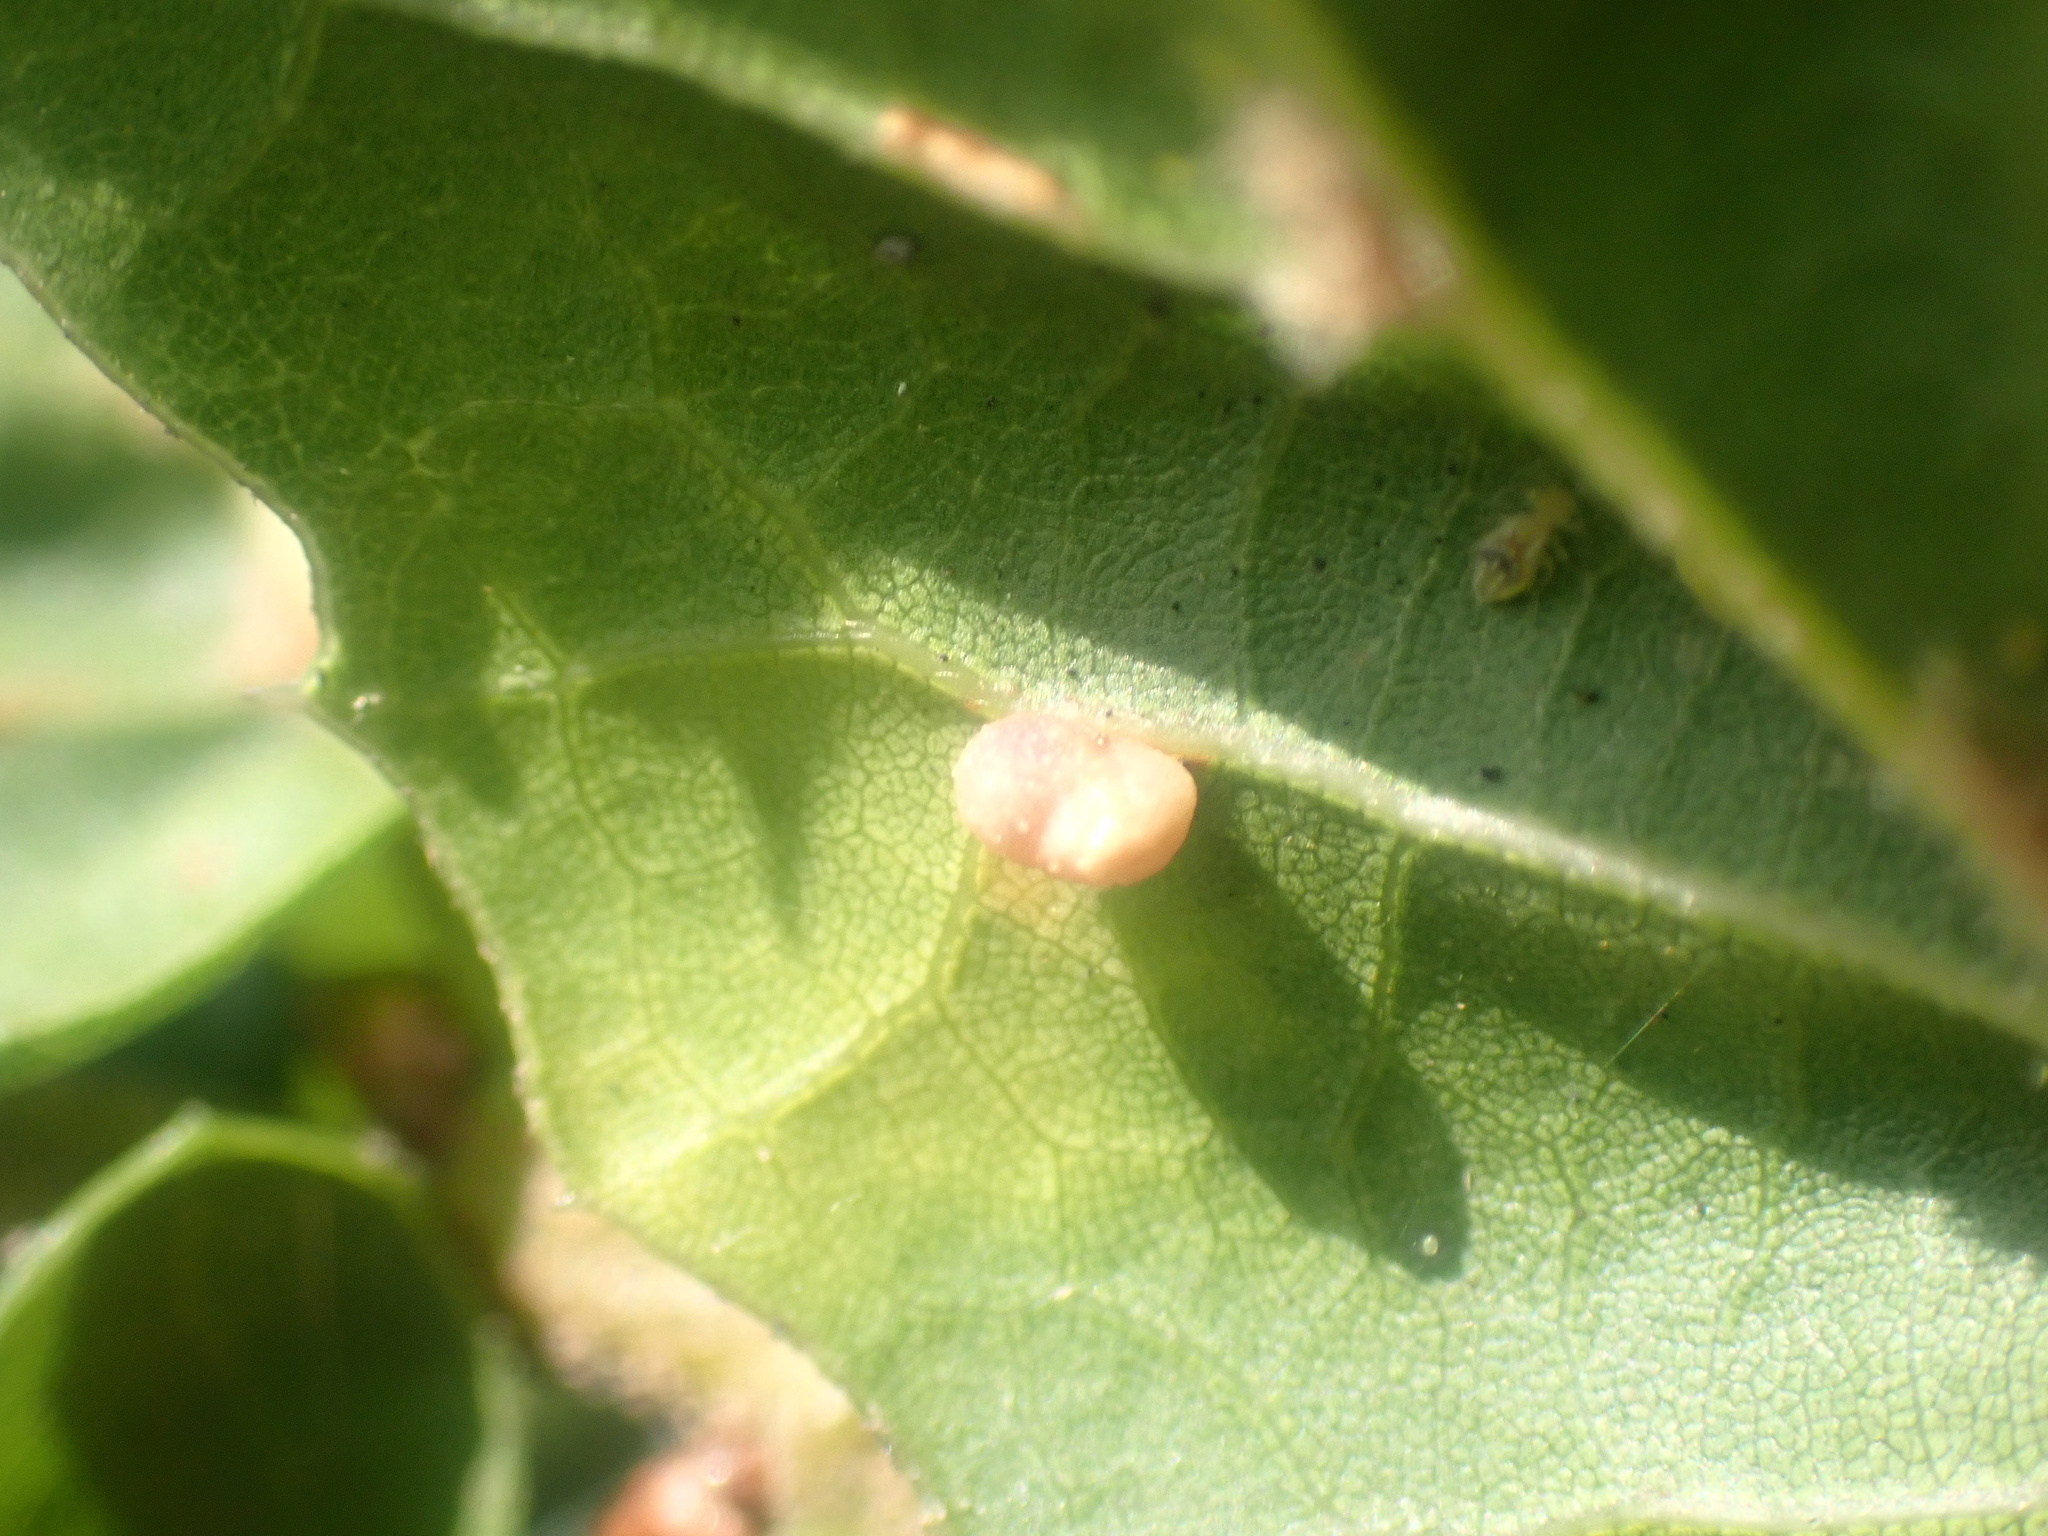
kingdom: Animalia
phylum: Arthropoda
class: Insecta
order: Hymenoptera
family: Cynipidae
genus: Dryocosmus
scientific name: Dryocosmus
